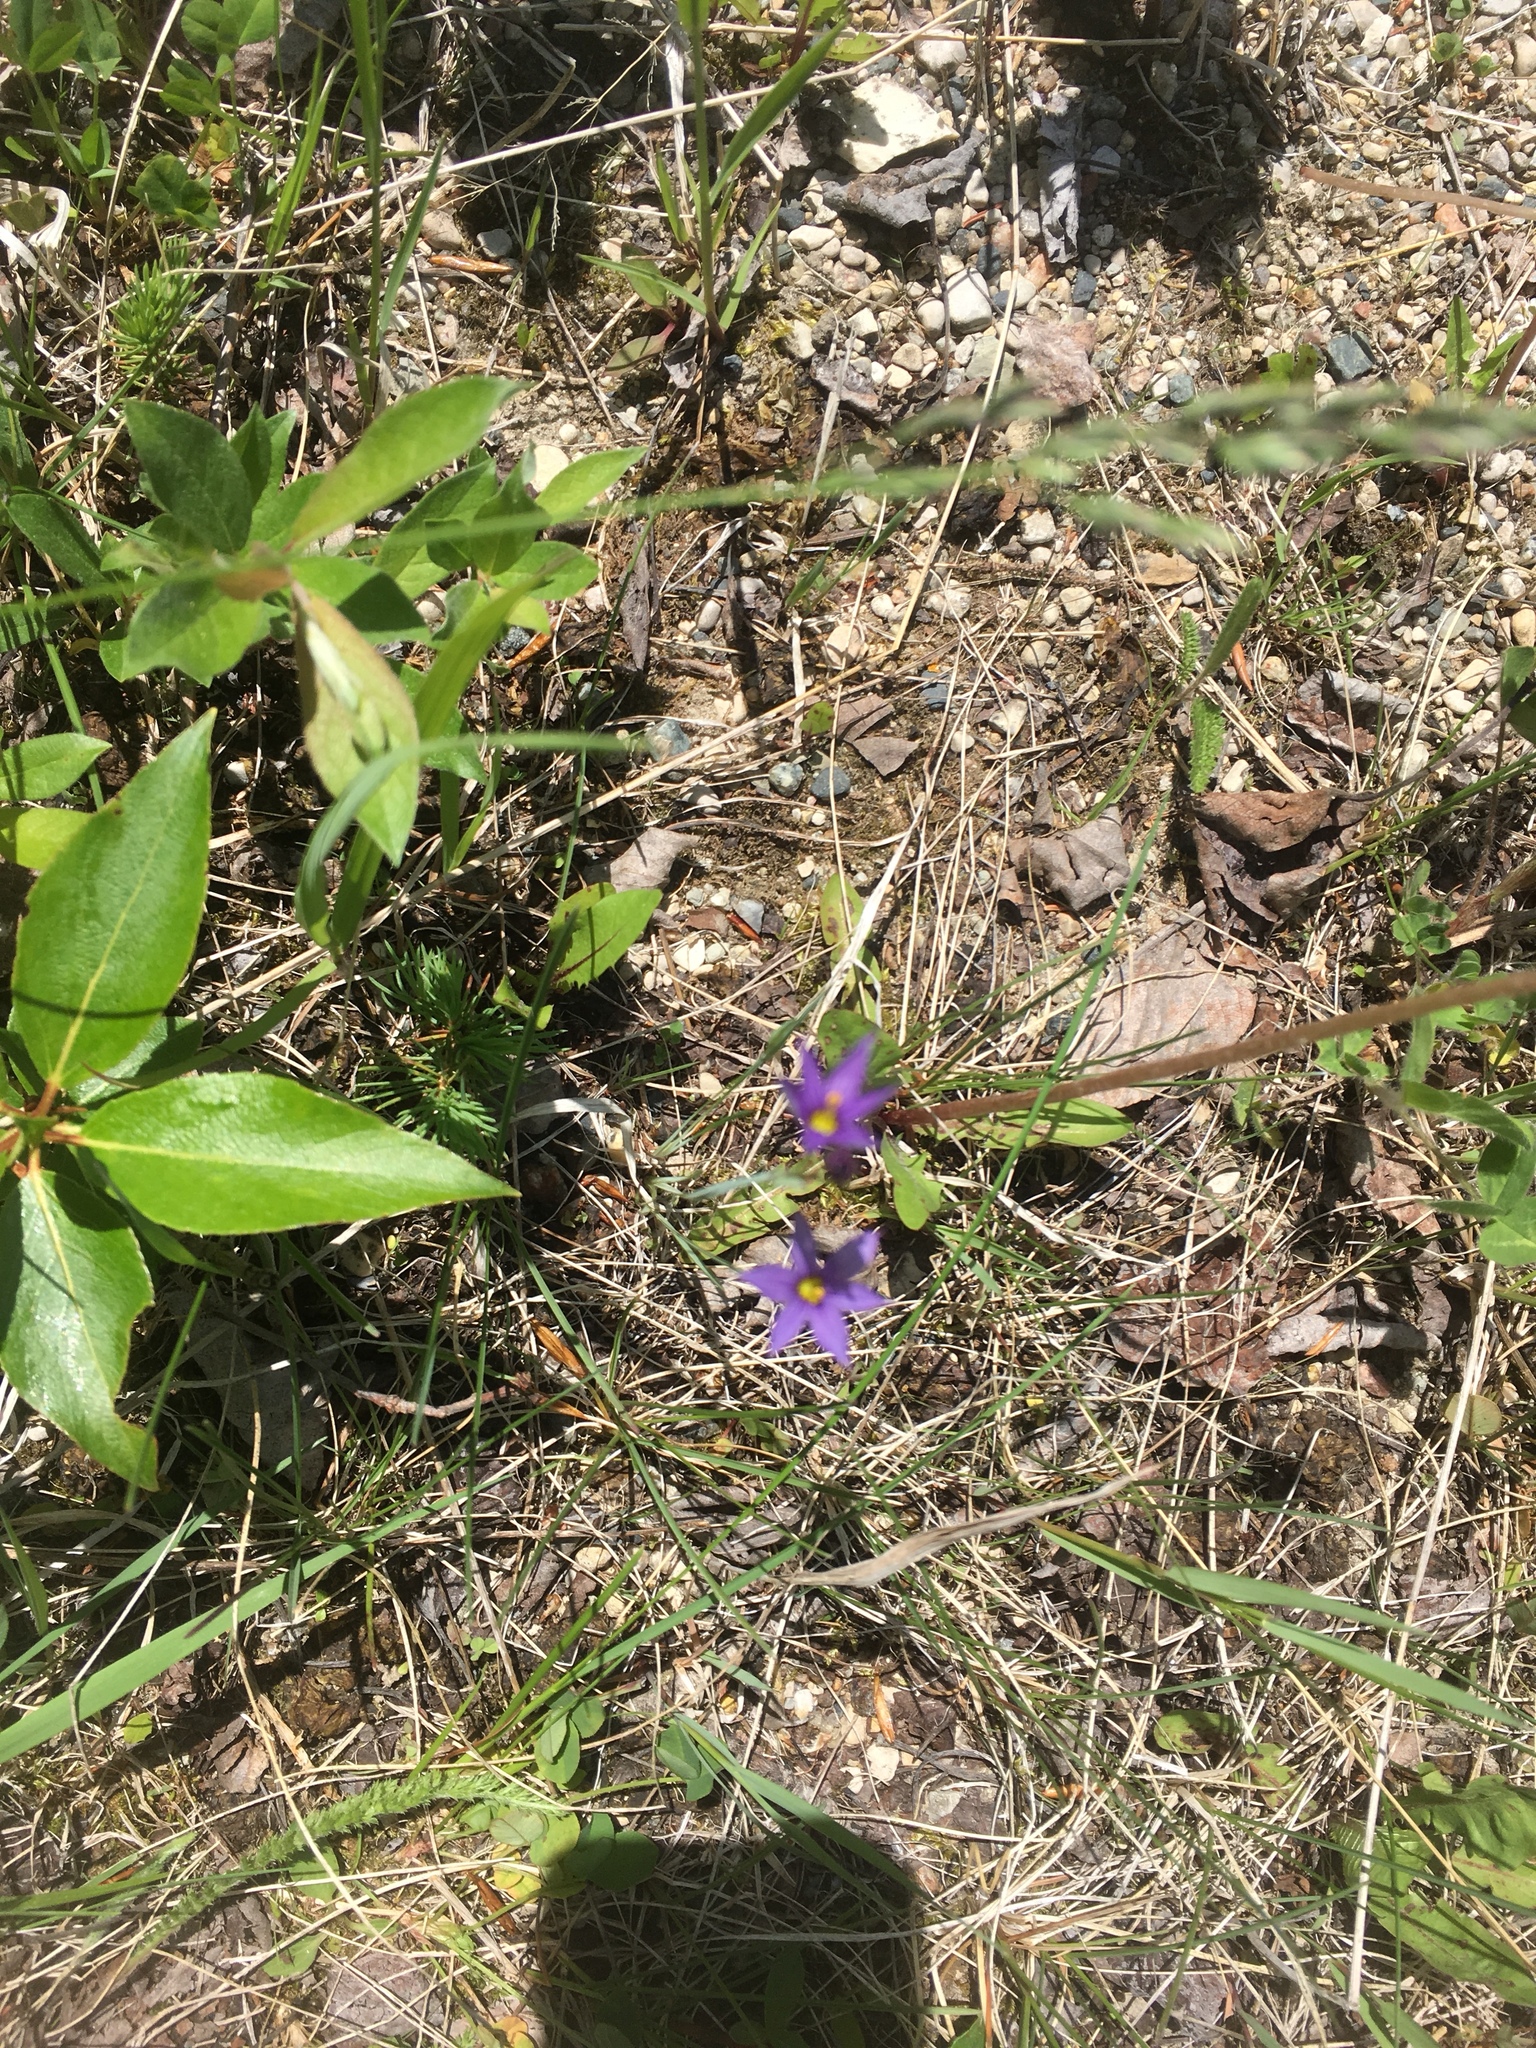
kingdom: Plantae
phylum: Tracheophyta
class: Liliopsida
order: Asparagales
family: Iridaceae
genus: Sisyrinchium
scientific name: Sisyrinchium montanum
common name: American blue-eyed-grass
